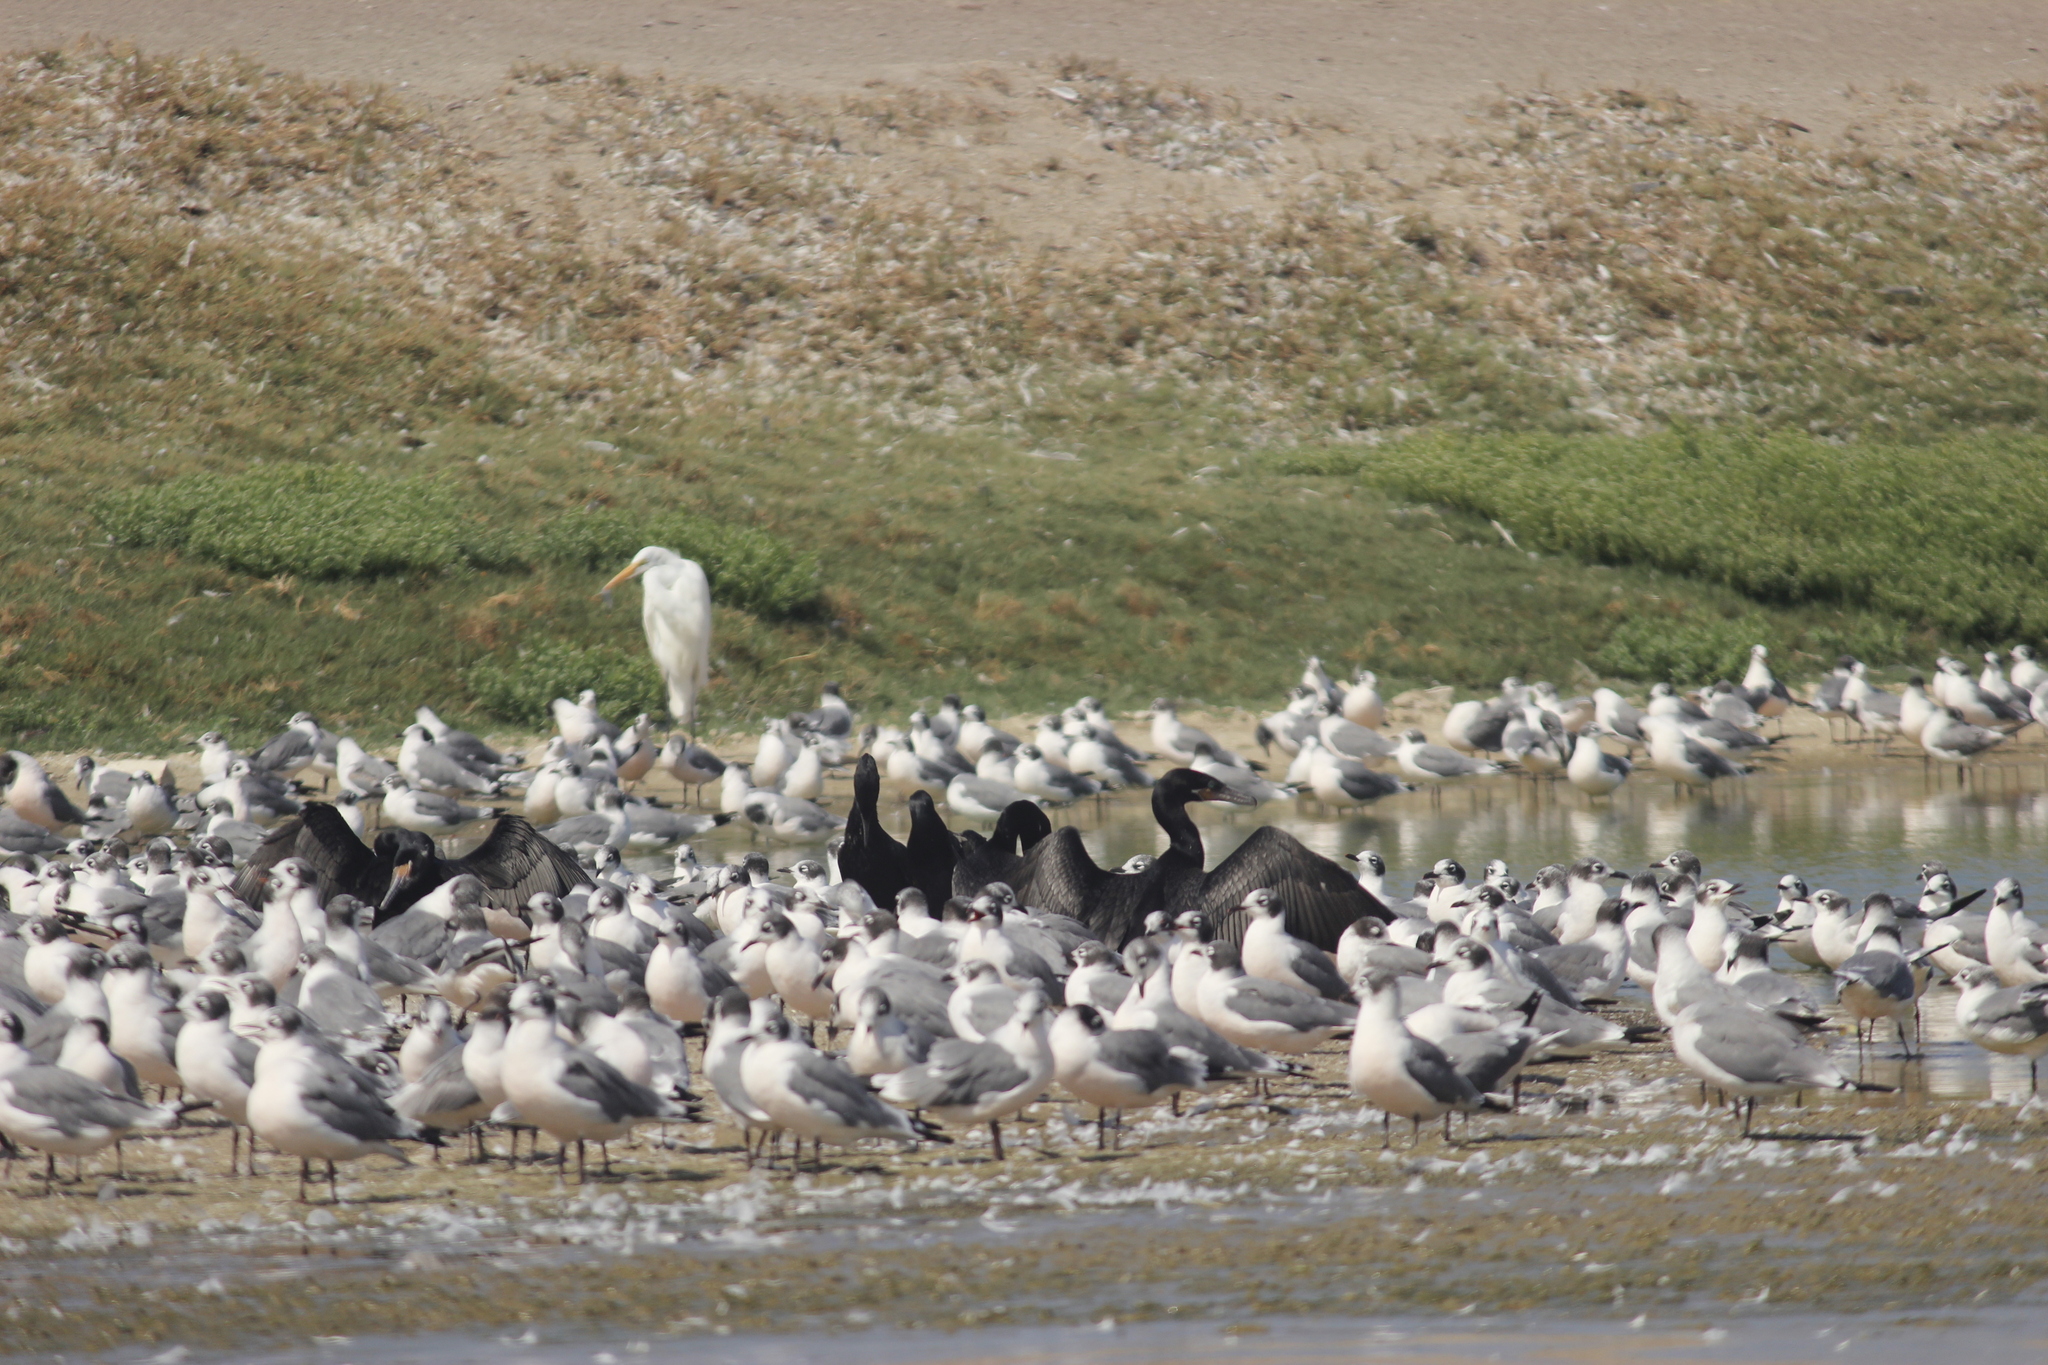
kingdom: Animalia
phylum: Chordata
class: Aves
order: Suliformes
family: Phalacrocoracidae
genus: Phalacrocorax
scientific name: Phalacrocorax brasilianus
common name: Neotropic cormorant
